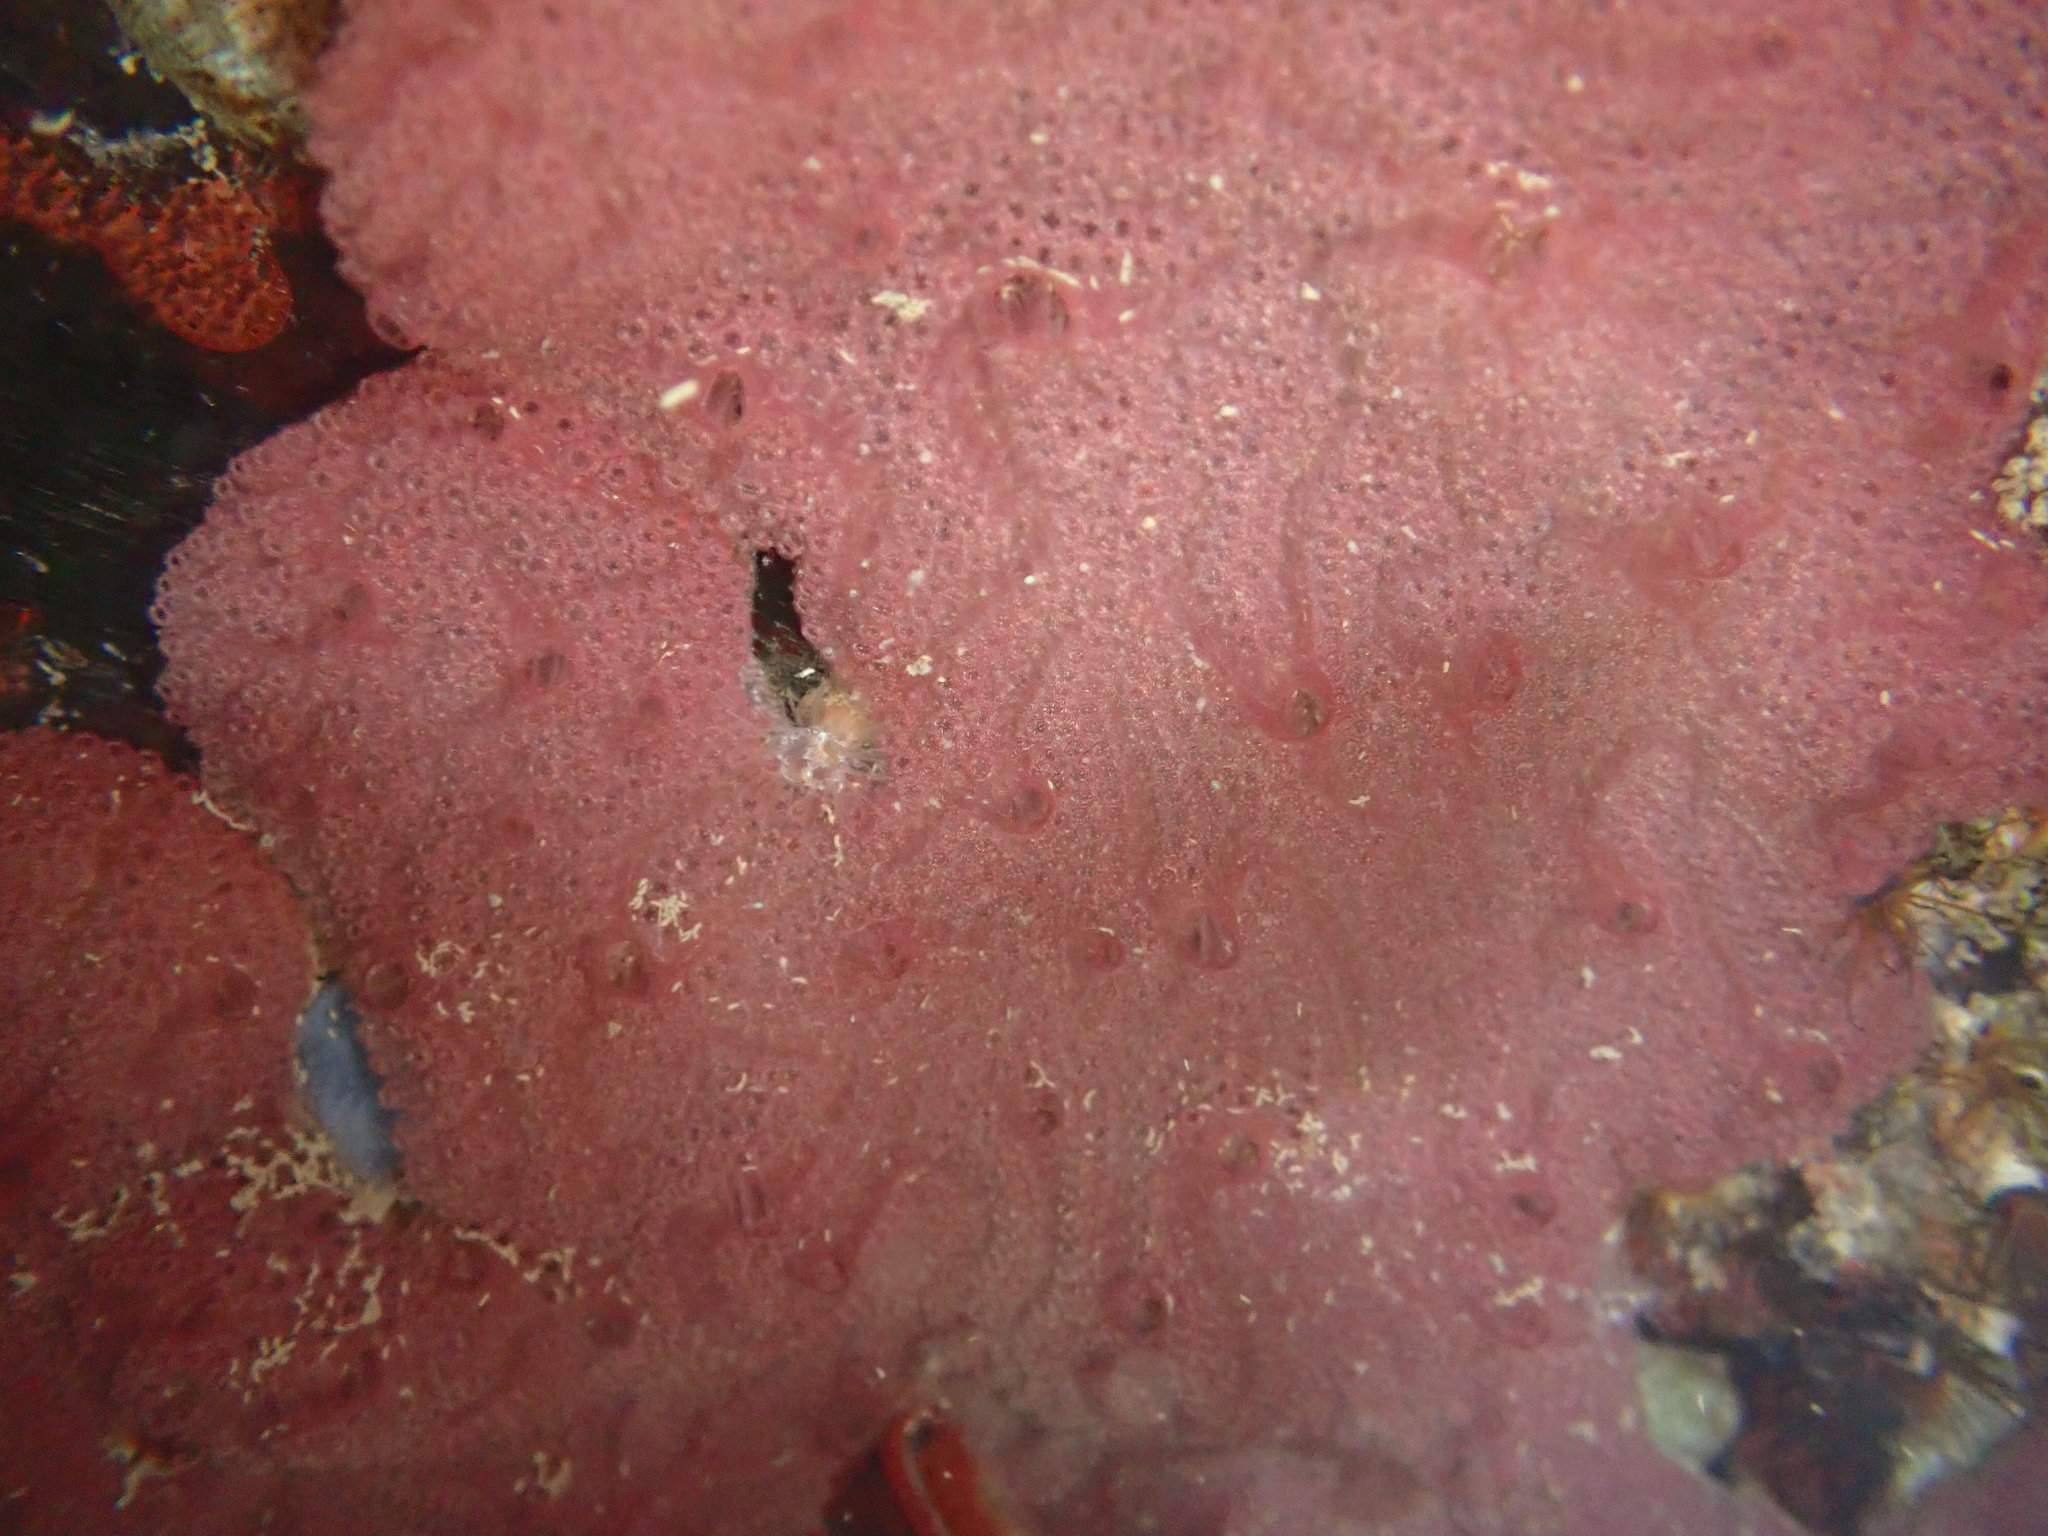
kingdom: Animalia
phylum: Chordata
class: Ascidiacea
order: Stolidobranchia
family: Styelidae
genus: Botrylloides
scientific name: Botrylloides violaceus
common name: Colonial sea squirt
